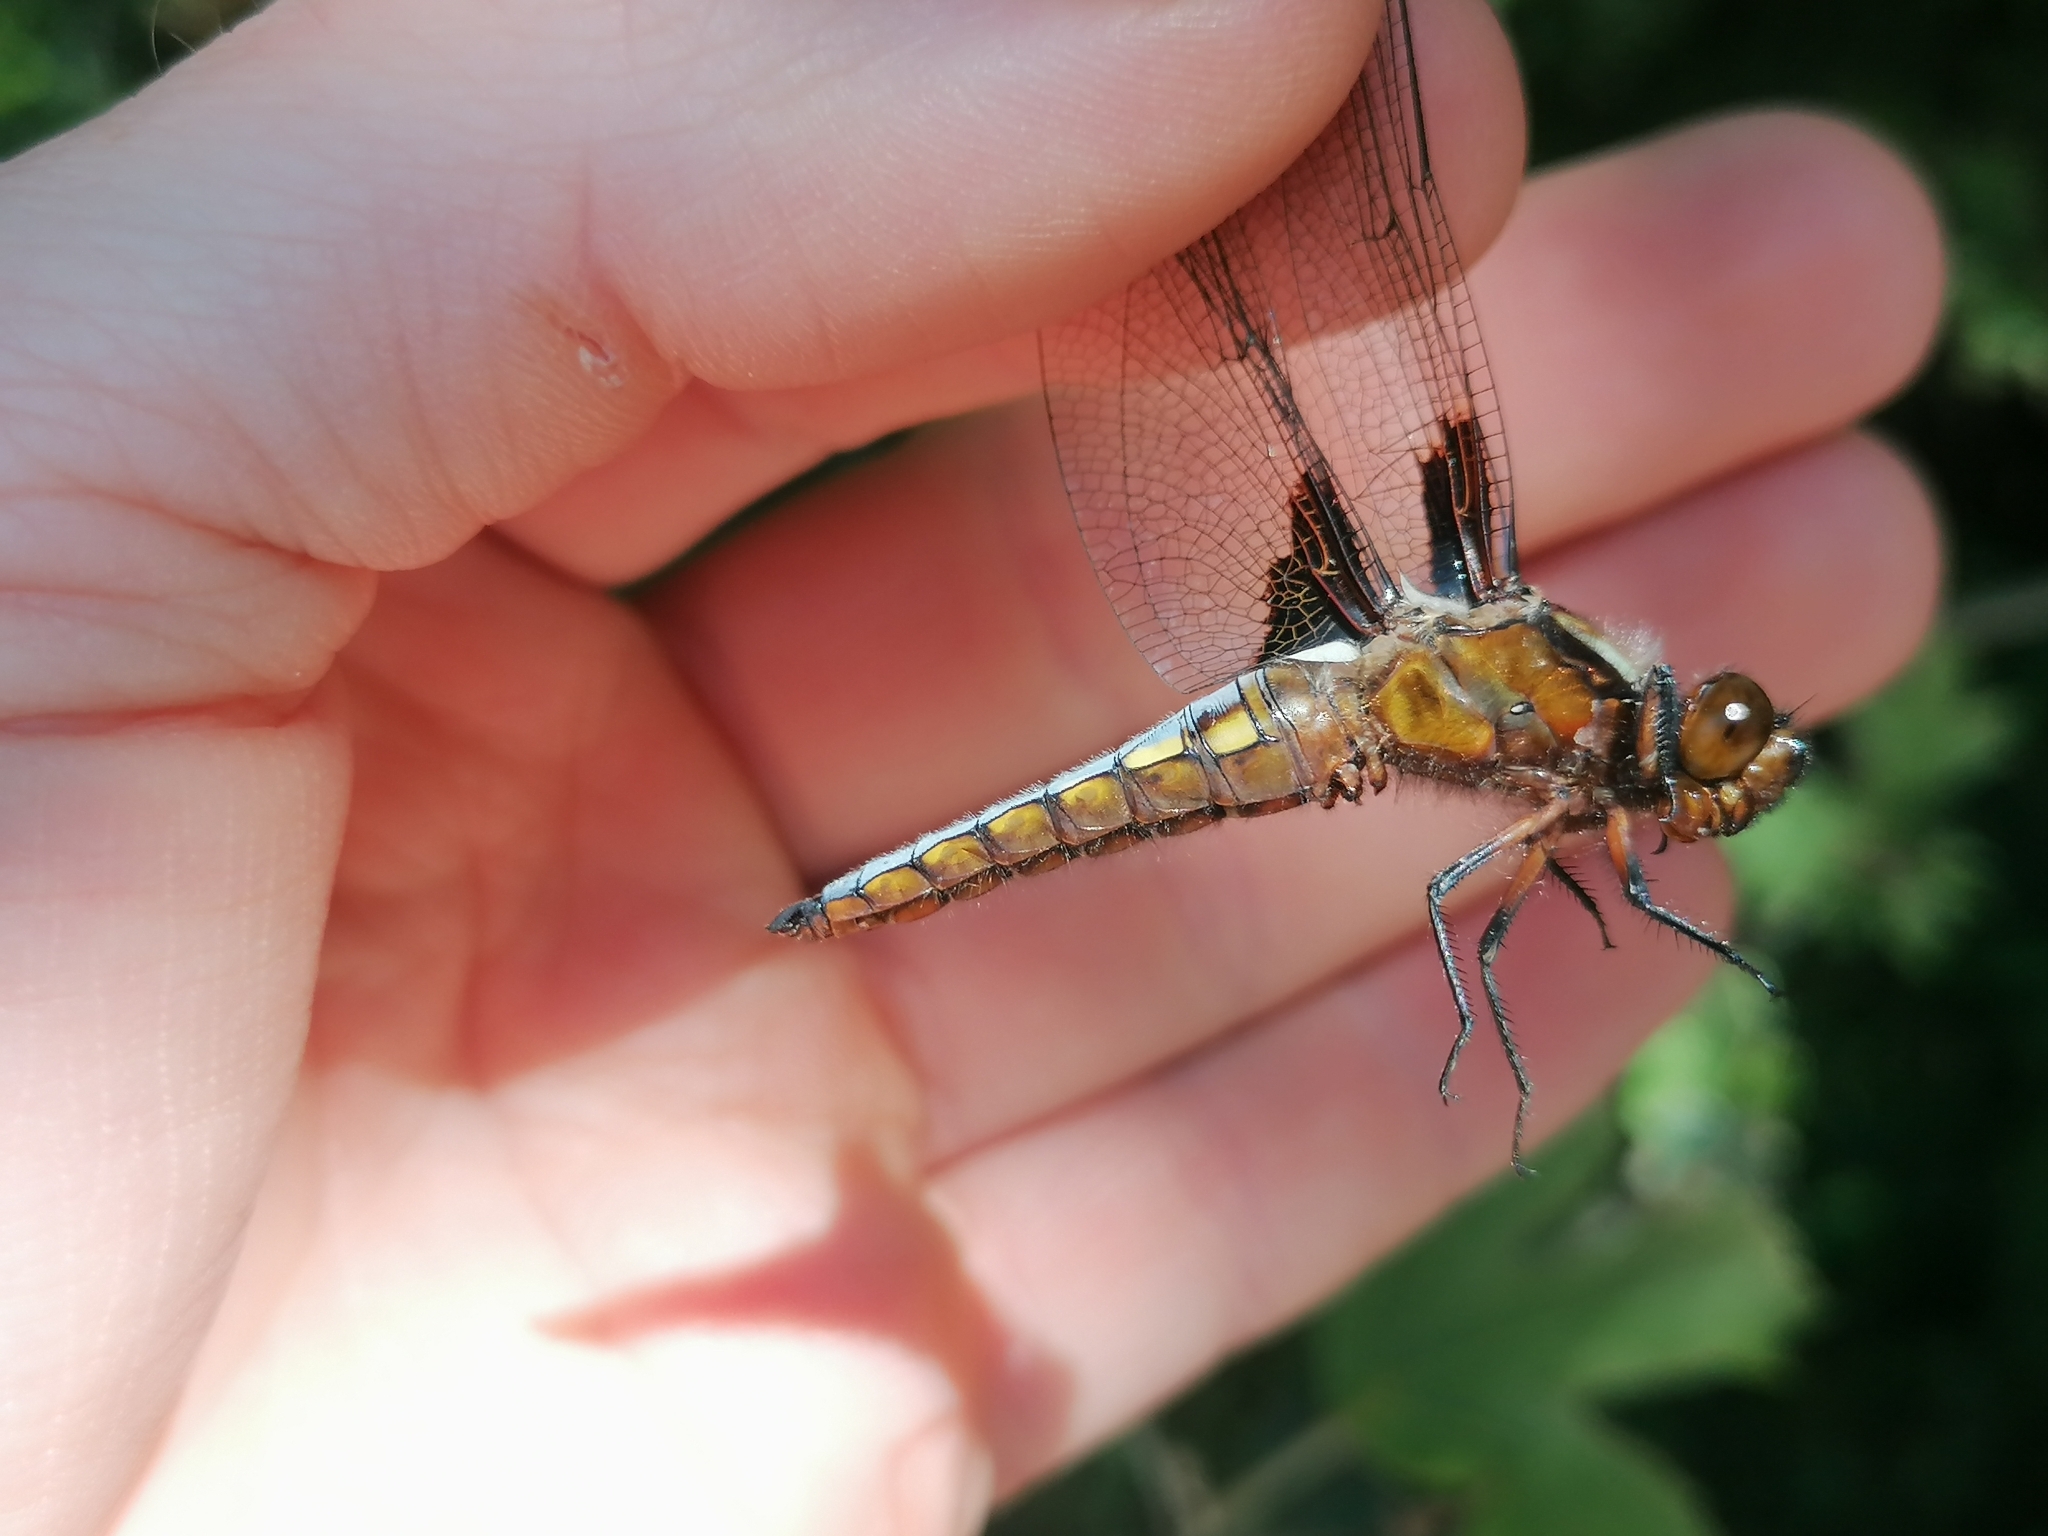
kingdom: Animalia
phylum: Arthropoda
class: Insecta
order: Odonata
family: Libellulidae
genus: Libellula
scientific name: Libellula depressa
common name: Broad-bodied chaser
